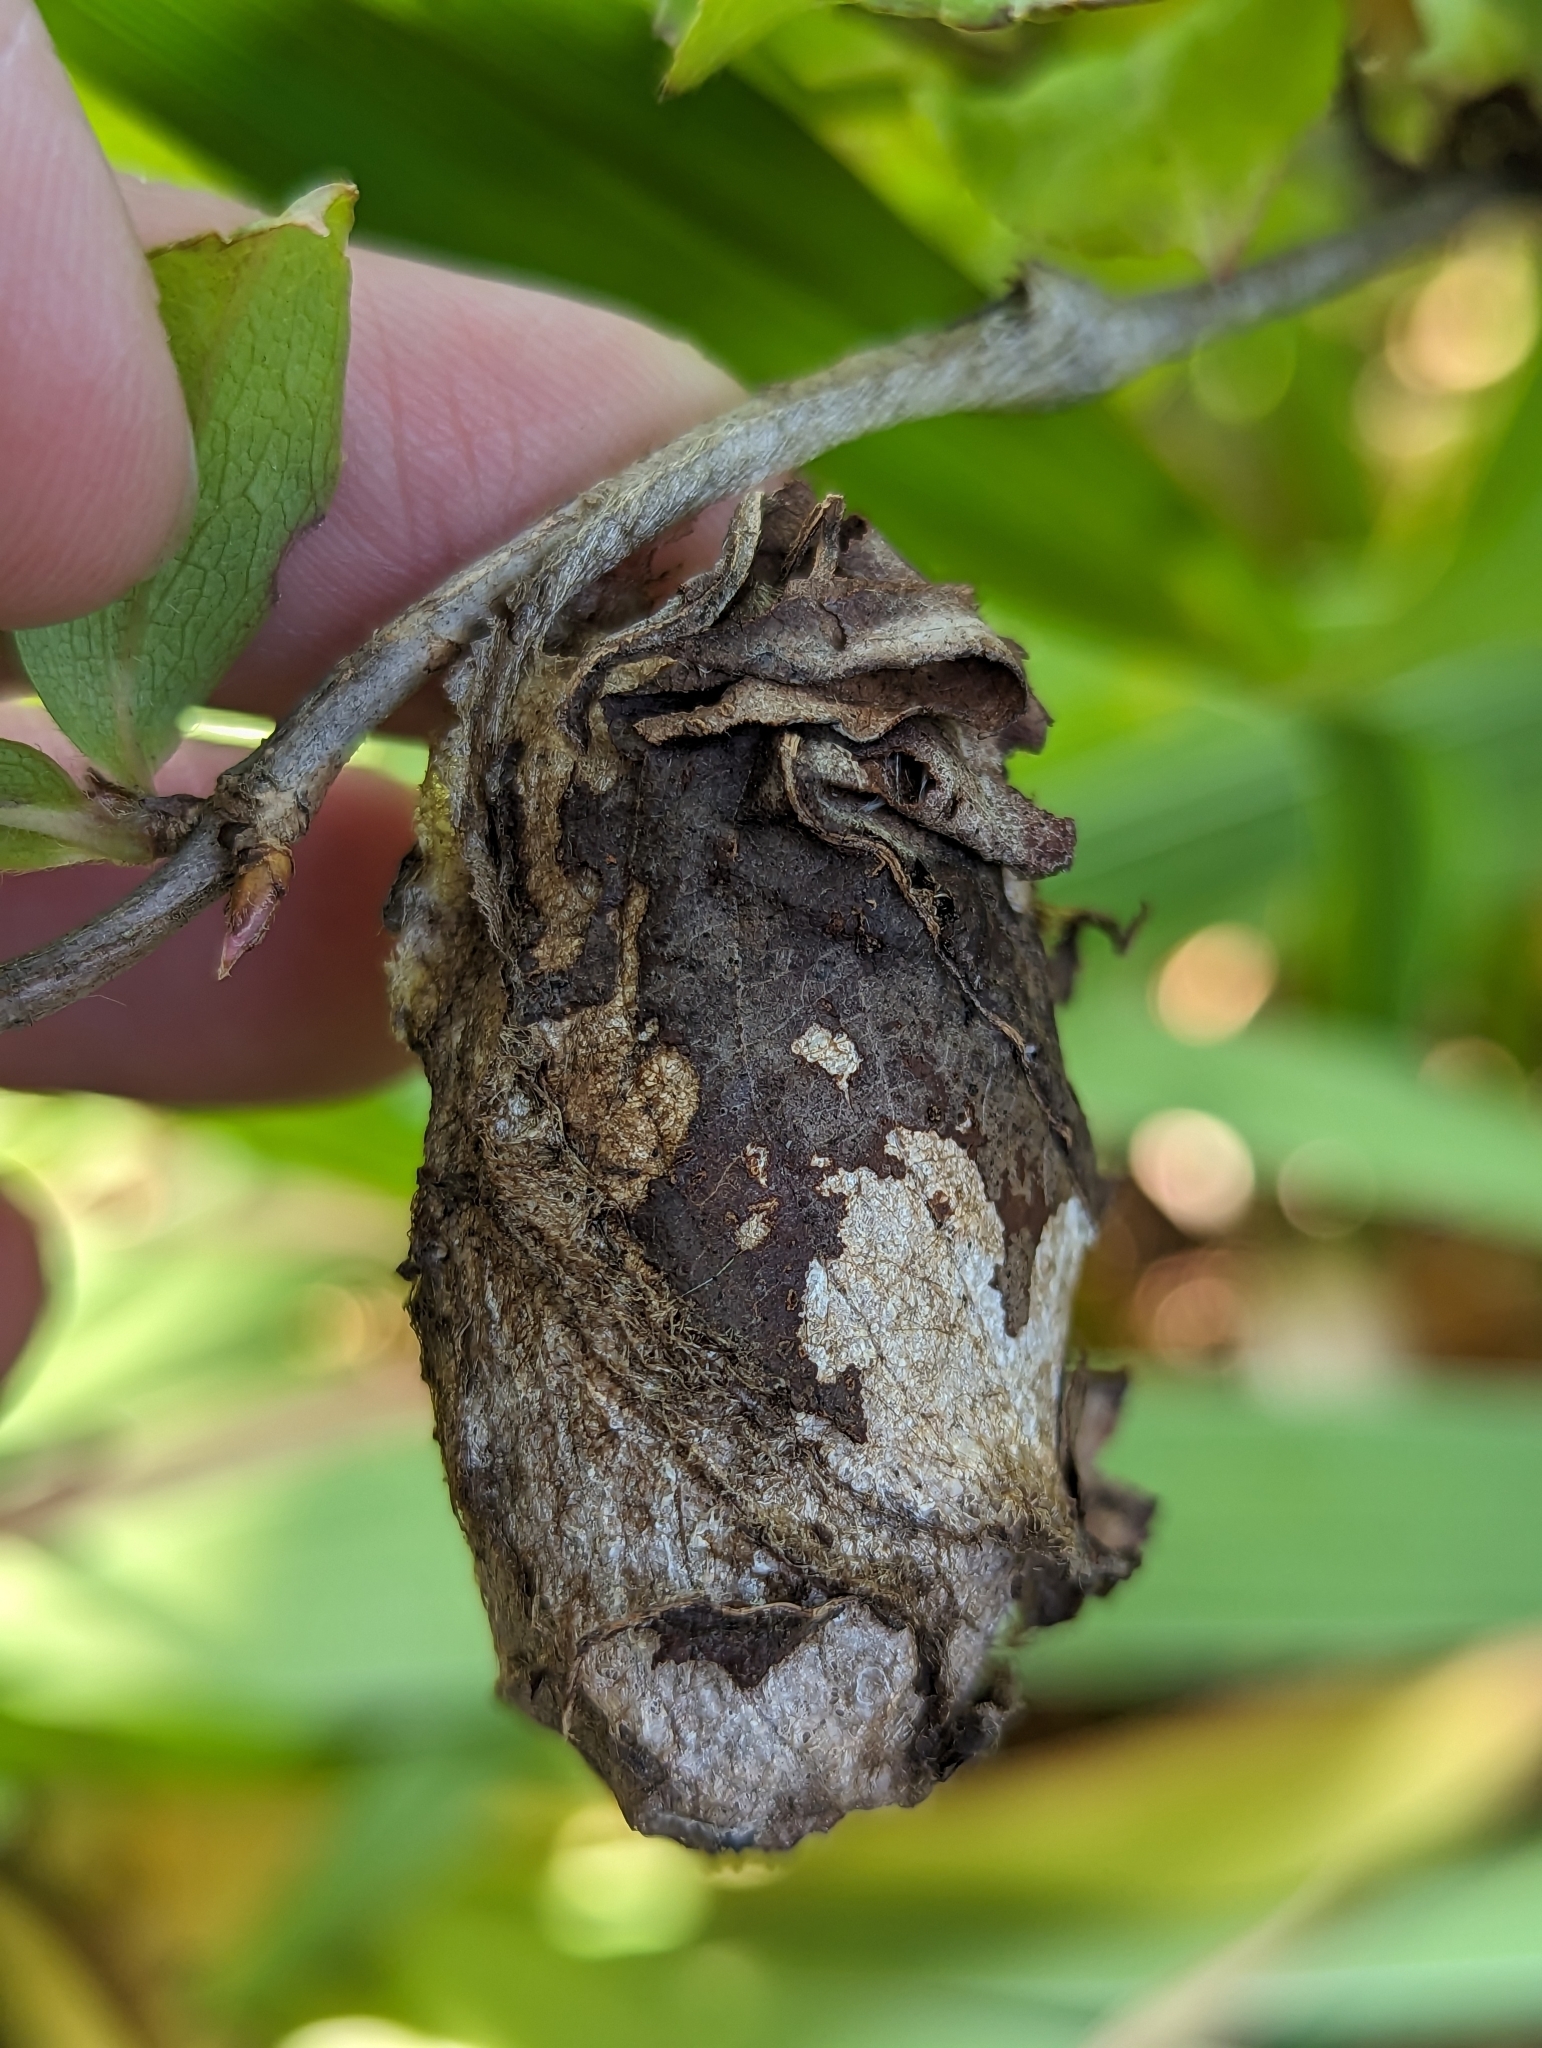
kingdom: Animalia
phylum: Arthropoda
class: Insecta
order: Lepidoptera
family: Saturniidae
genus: Antheraea
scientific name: Antheraea polyphemus
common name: Polyphemus moth
